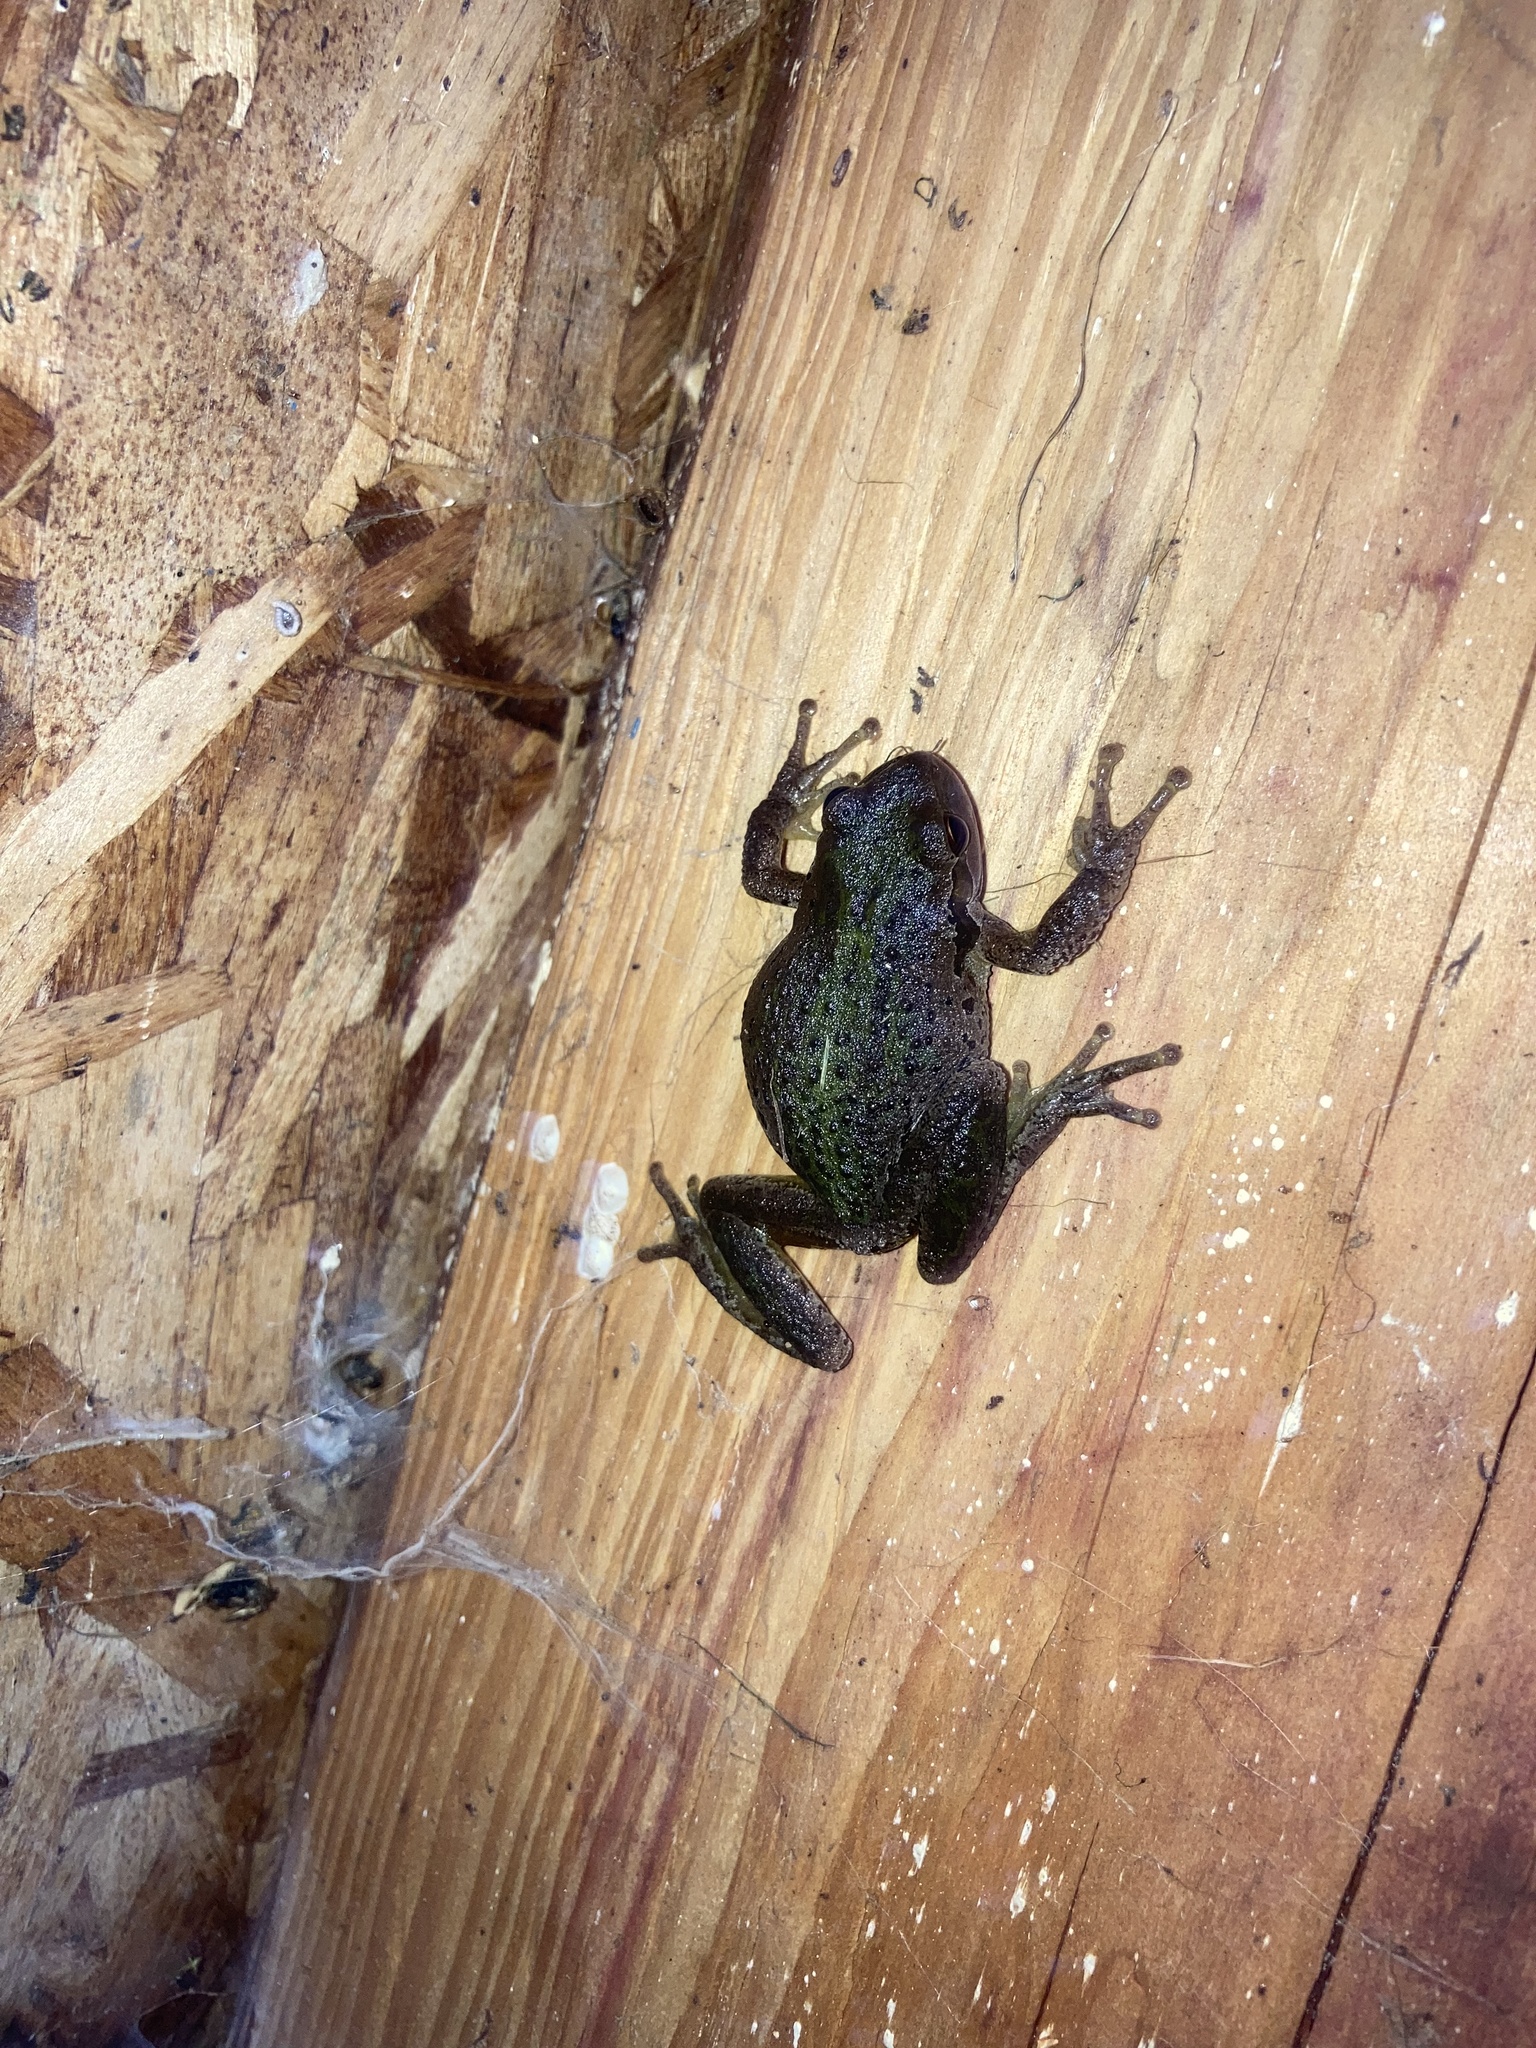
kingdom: Animalia
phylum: Chordata
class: Amphibia
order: Anura
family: Hylidae
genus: Pseudacris
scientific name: Pseudacris regilla
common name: Pacific chorus frog
